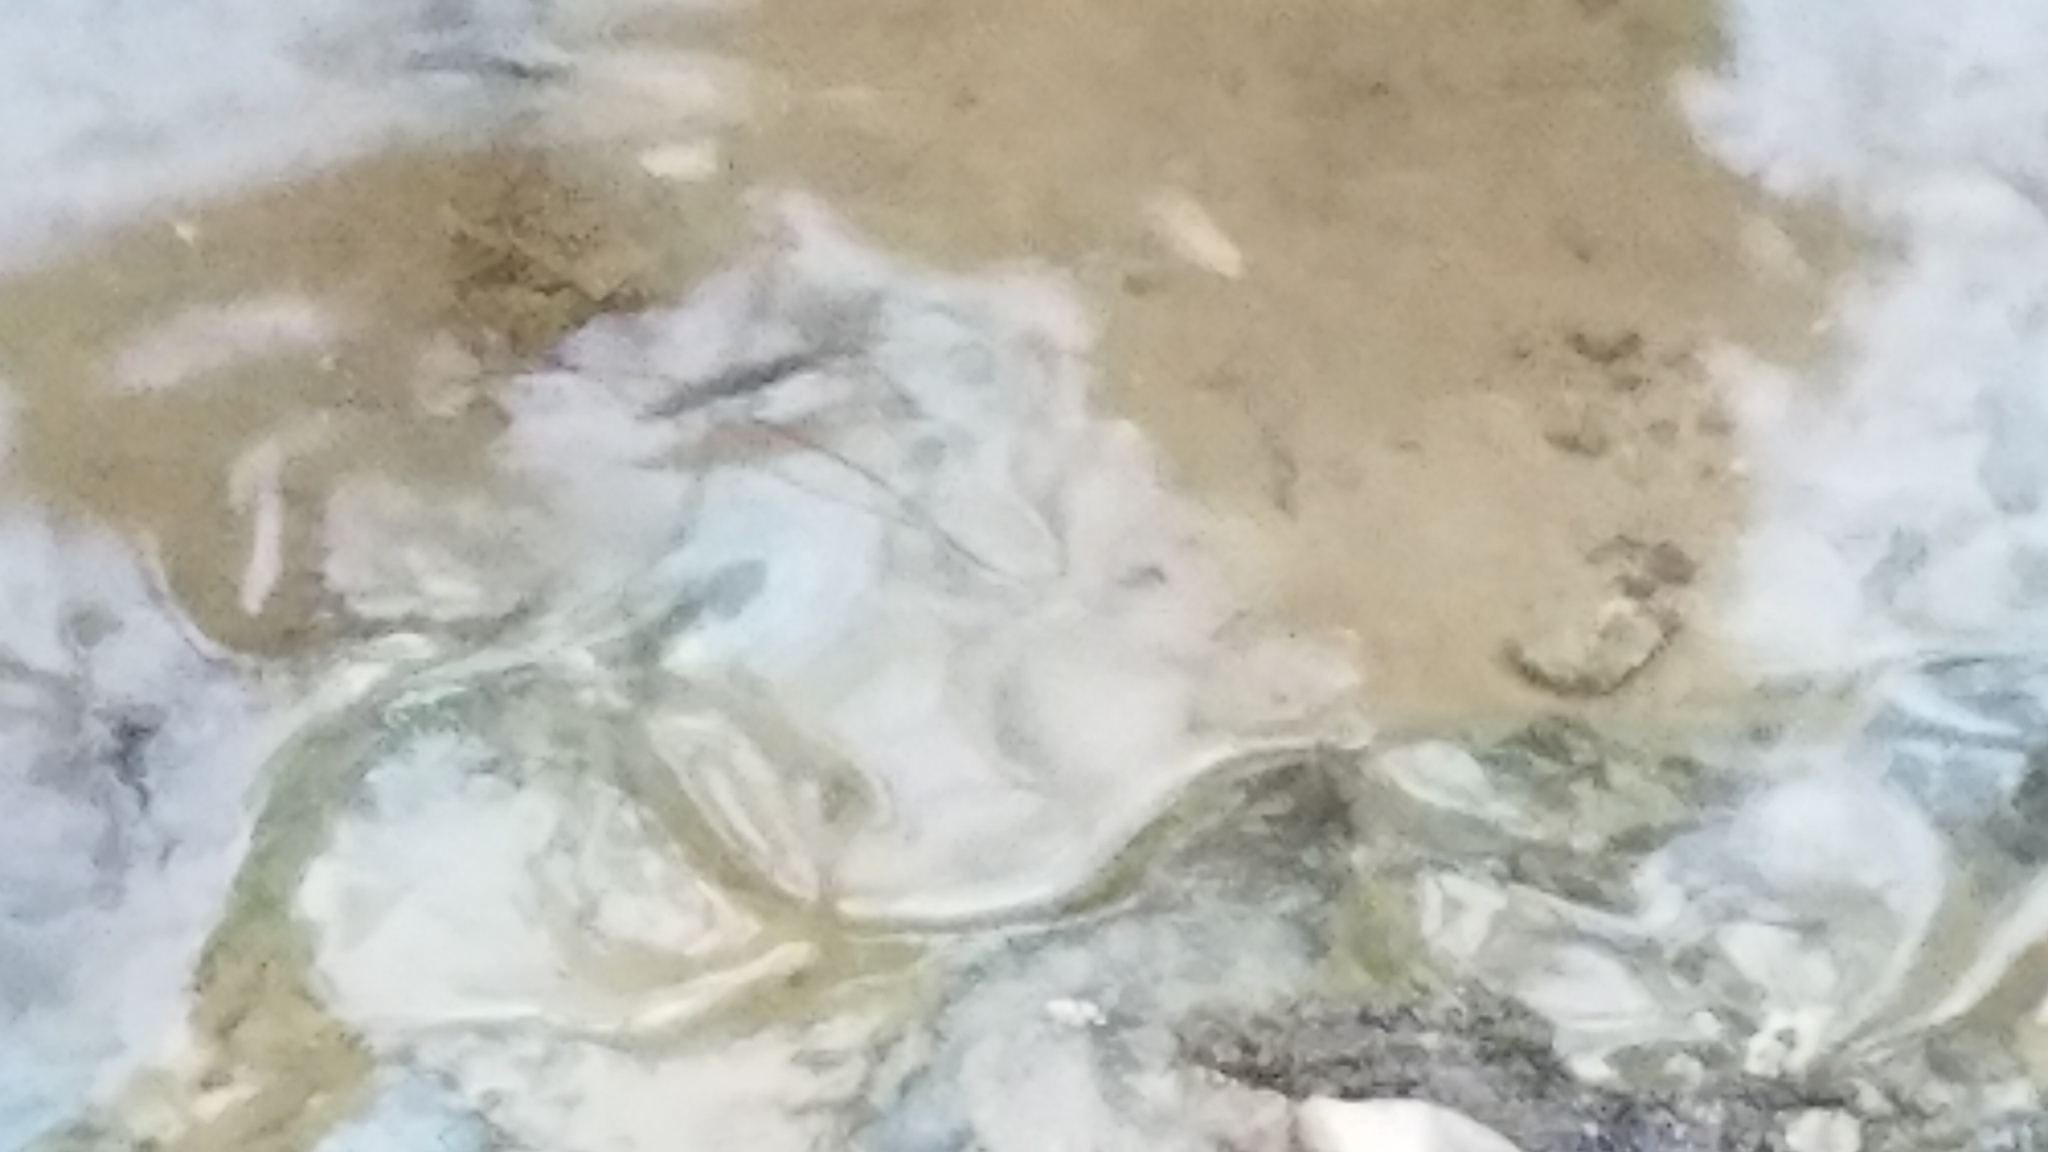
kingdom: Animalia
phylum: Arthropoda
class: Insecta
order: Hemiptera
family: Gerridae
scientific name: Gerridae
